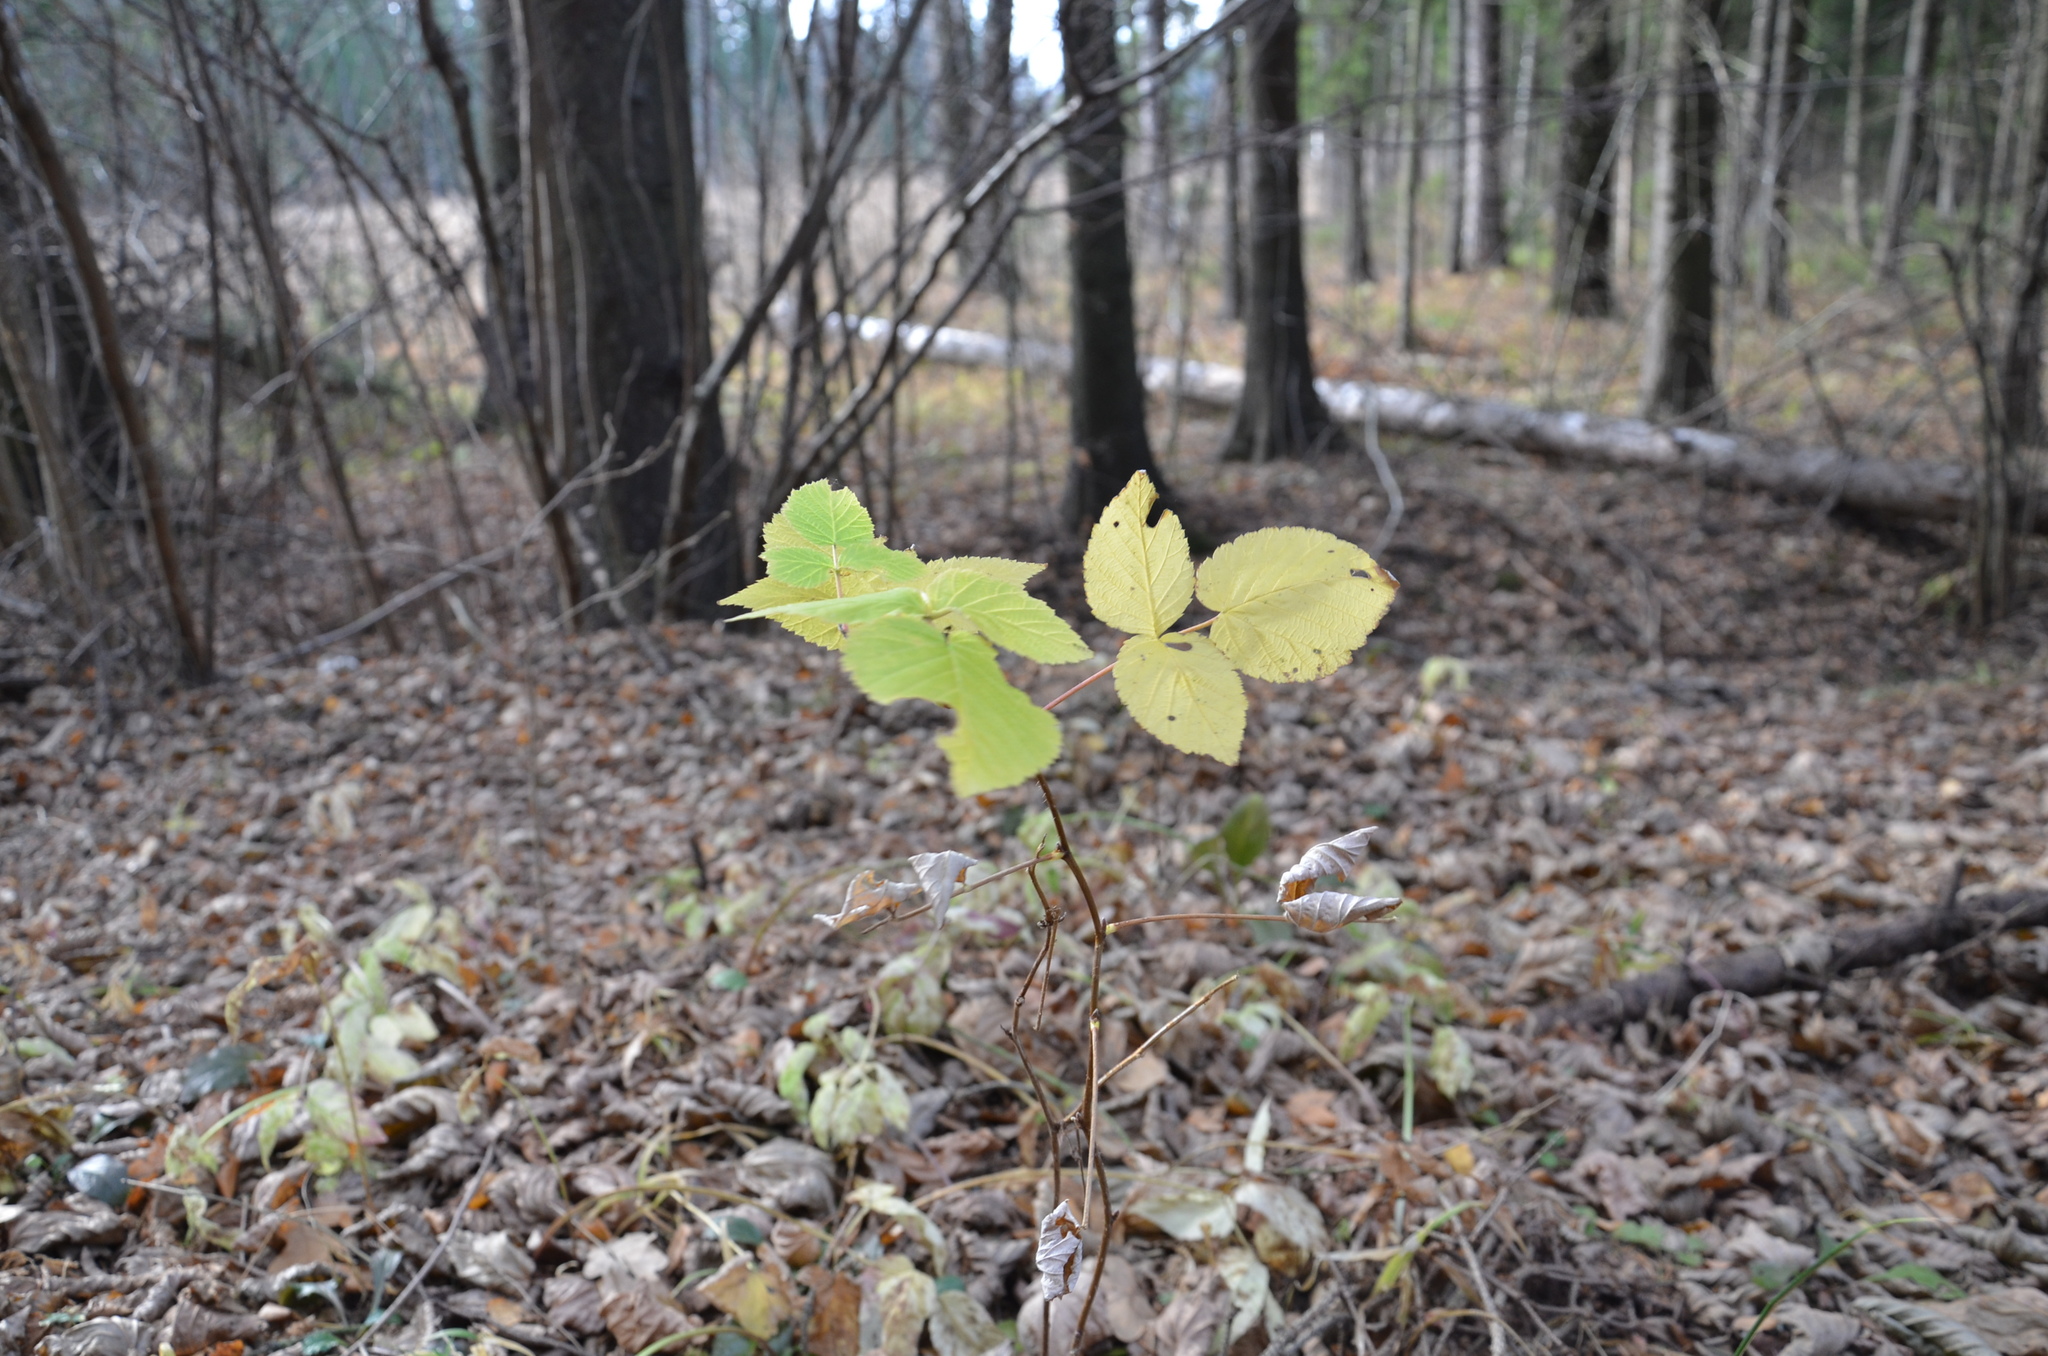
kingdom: Plantae
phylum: Tracheophyta
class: Magnoliopsida
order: Rosales
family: Rosaceae
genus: Rubus
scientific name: Rubus idaeus
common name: Raspberry
